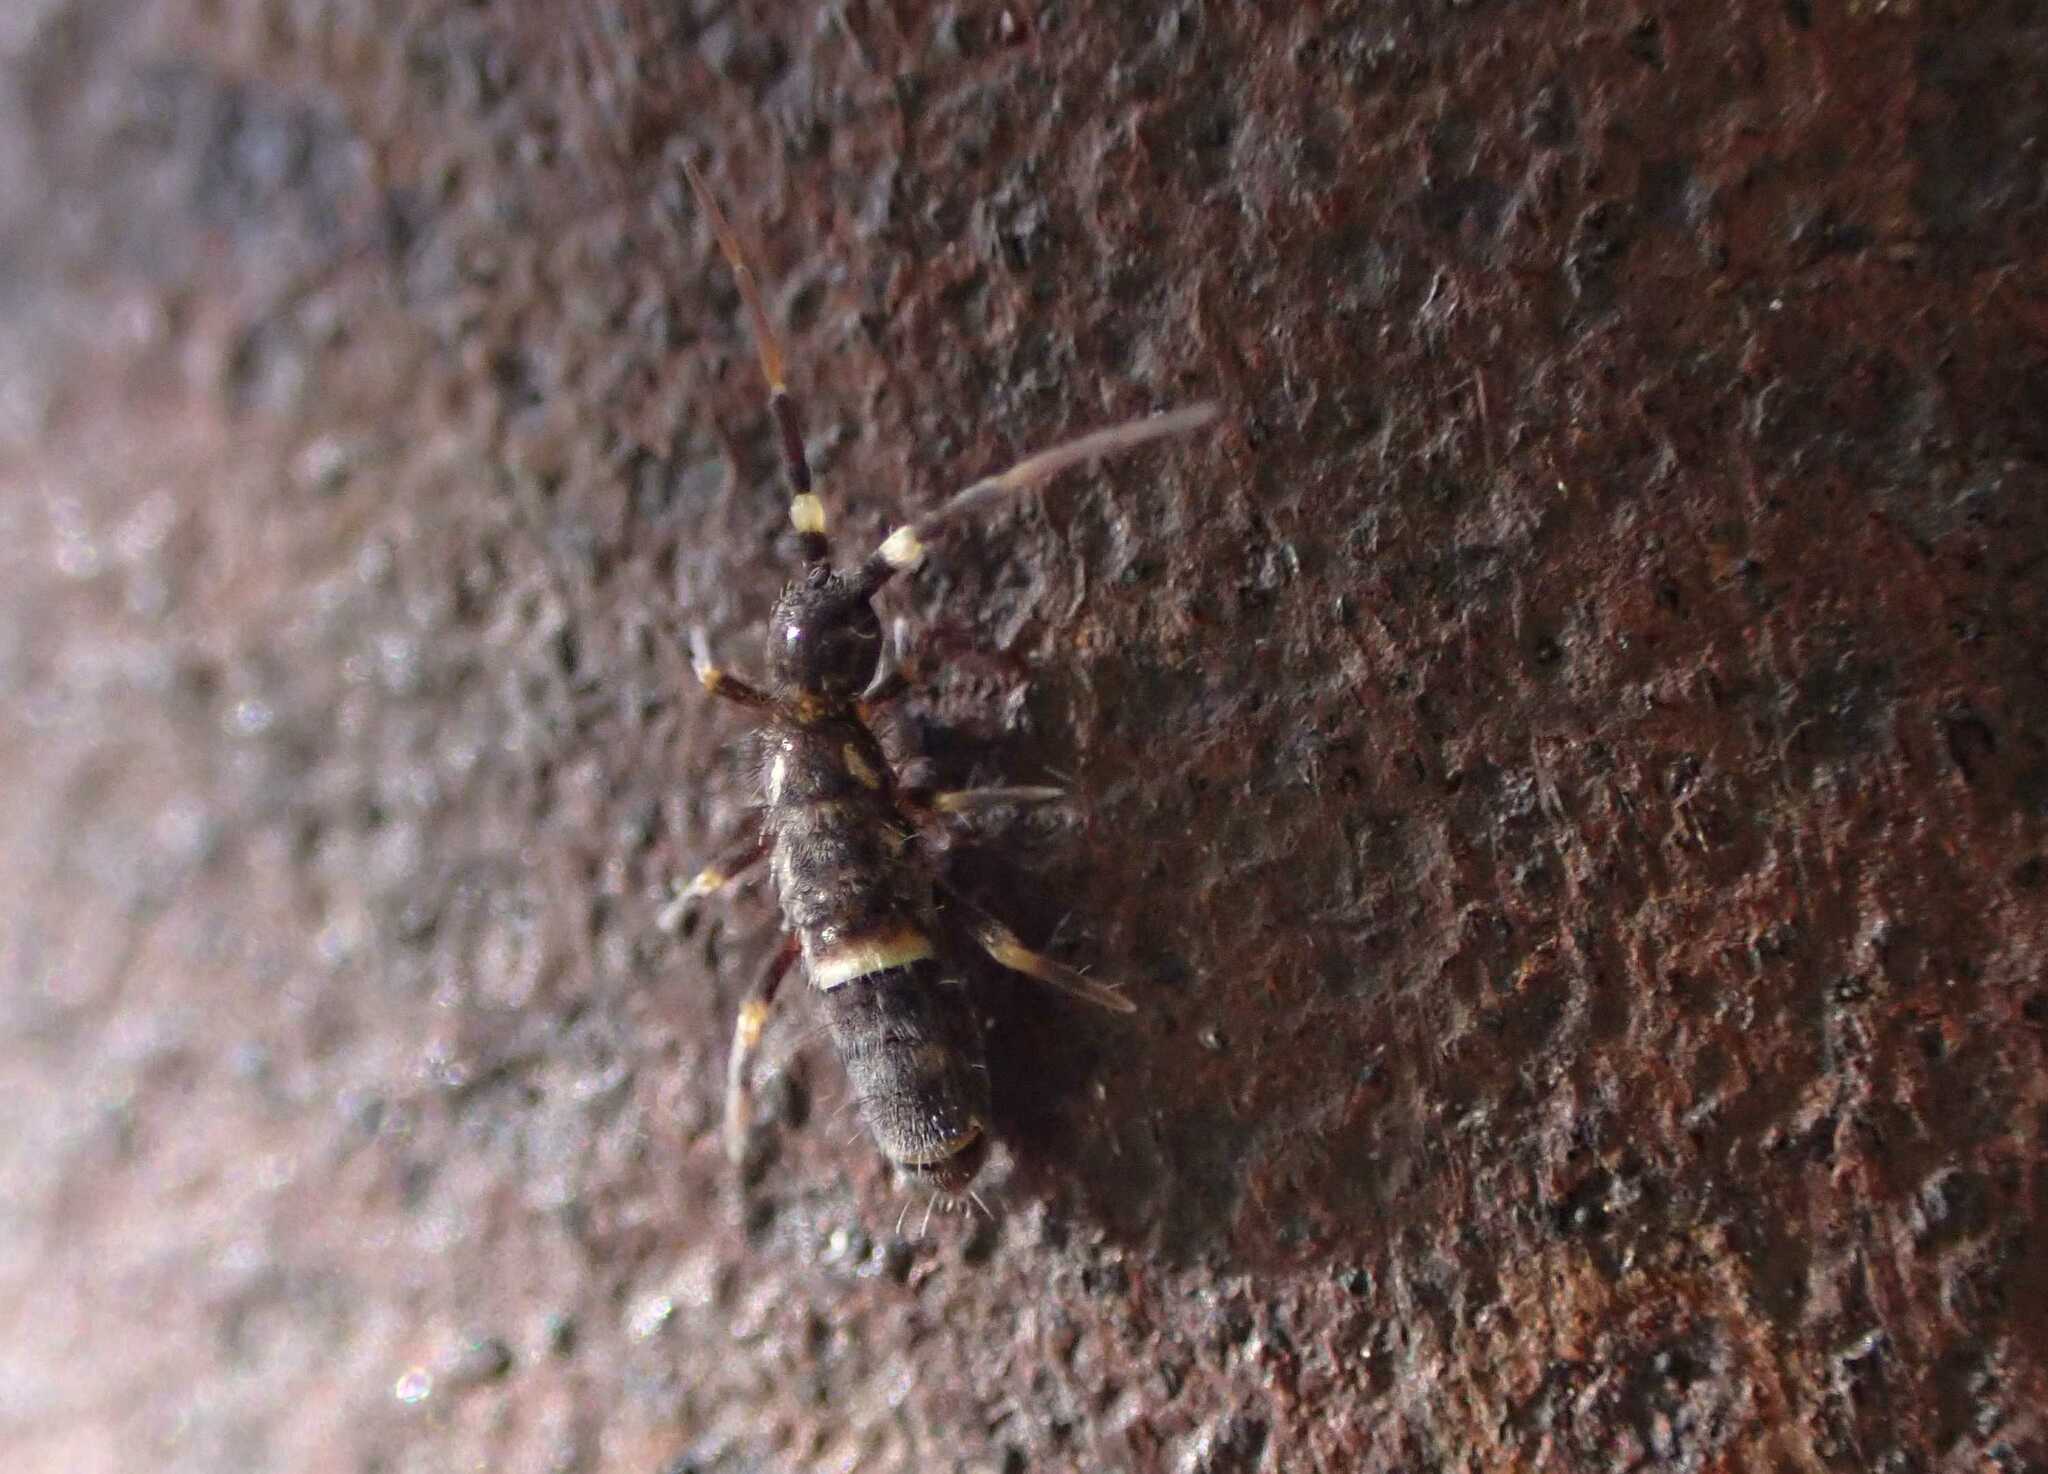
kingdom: Animalia
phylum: Arthropoda
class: Collembola
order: Entomobryomorpha
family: Orchesellidae
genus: Orchesella
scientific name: Orchesella cincta
